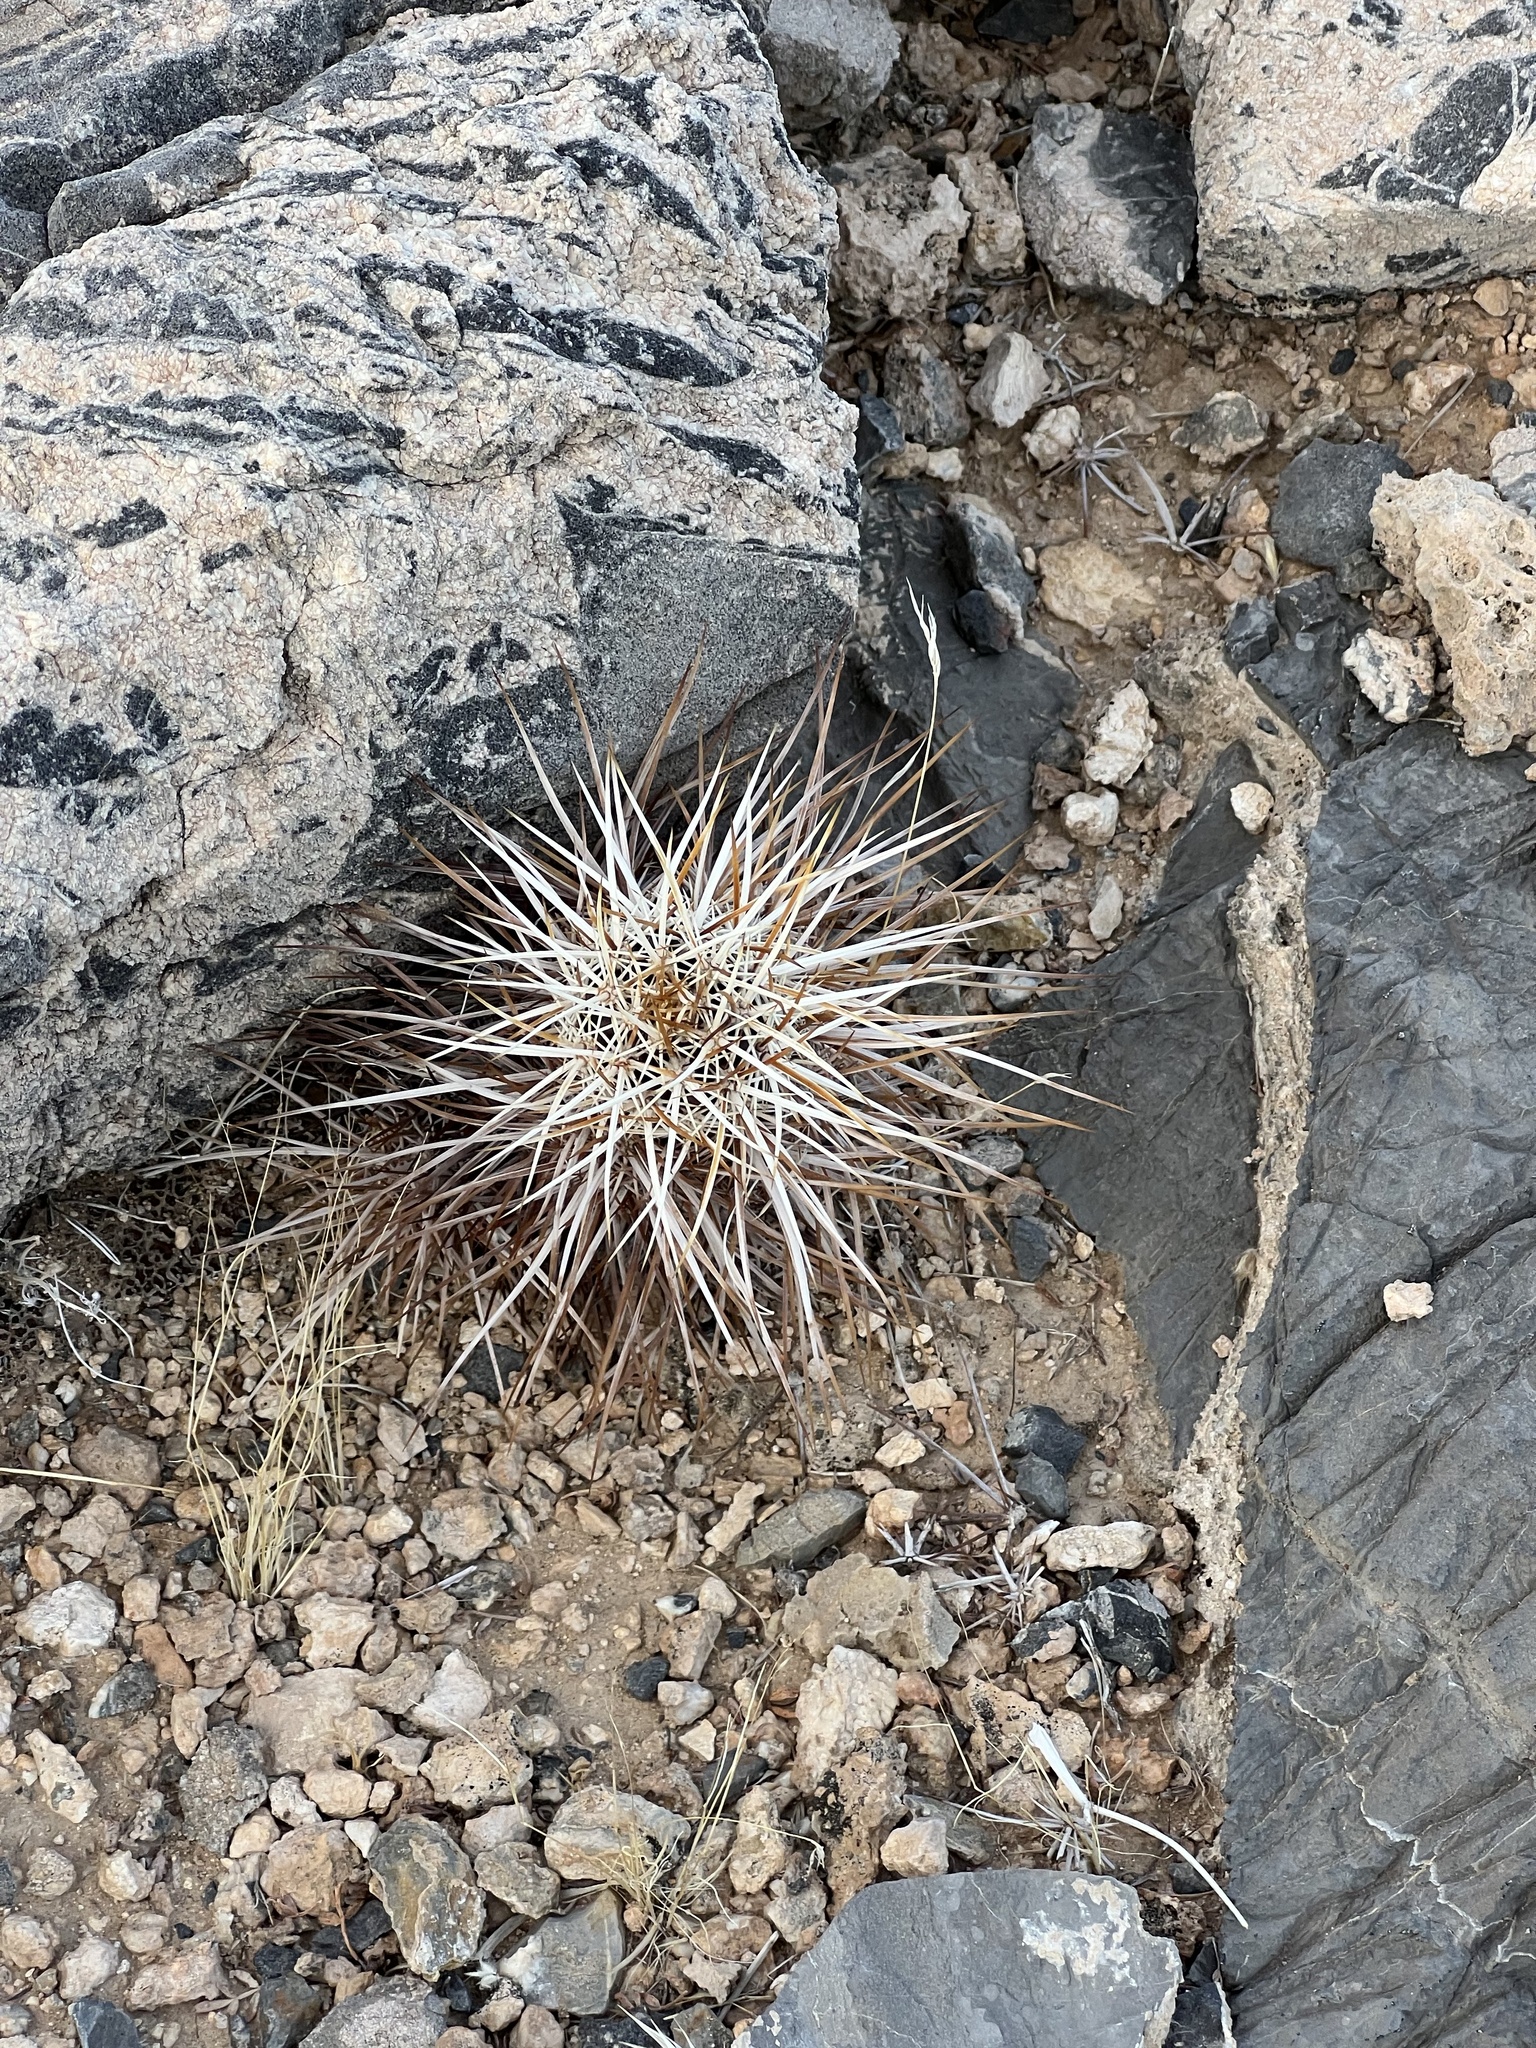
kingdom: Plantae
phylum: Tracheophyta
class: Magnoliopsida
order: Caryophyllales
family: Cactaceae
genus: Echinocereus
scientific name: Echinocereus engelmannii
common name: Engelmann's hedgehog cactus
